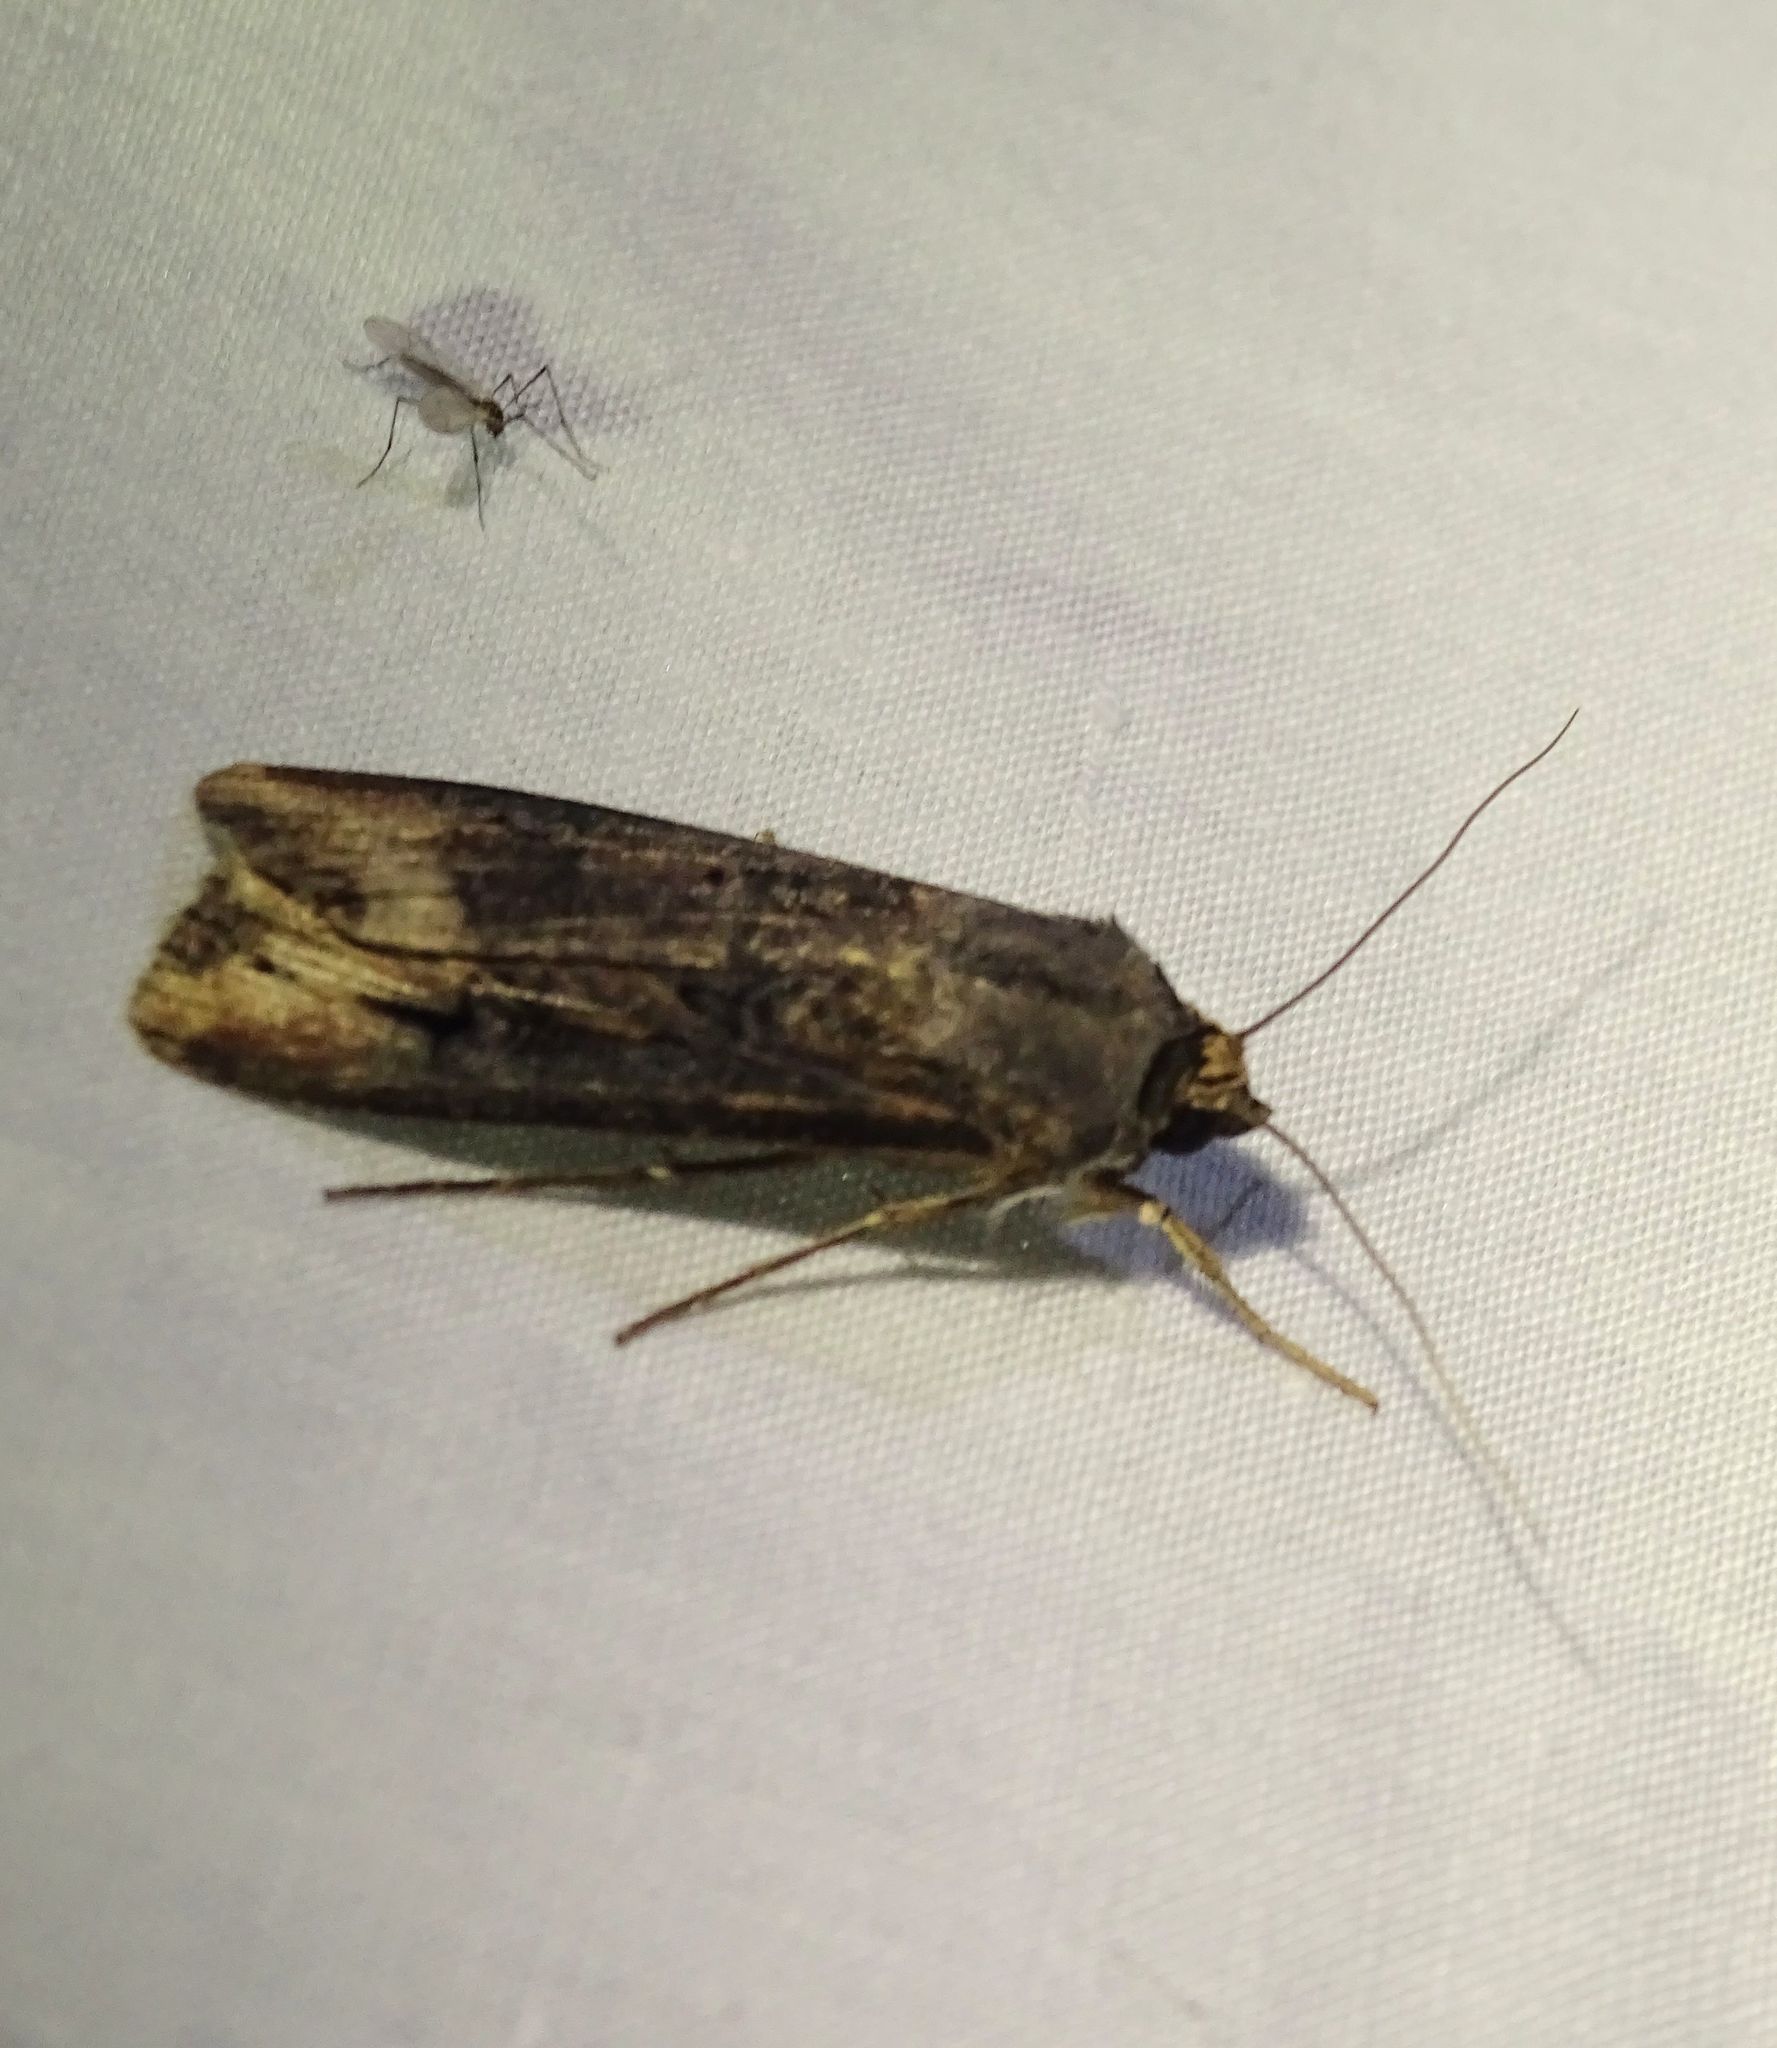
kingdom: Animalia
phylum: Arthropoda
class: Insecta
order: Lepidoptera
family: Noctuidae
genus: Agrotis
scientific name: Agrotis ipsilon
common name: Dark sword-grass
